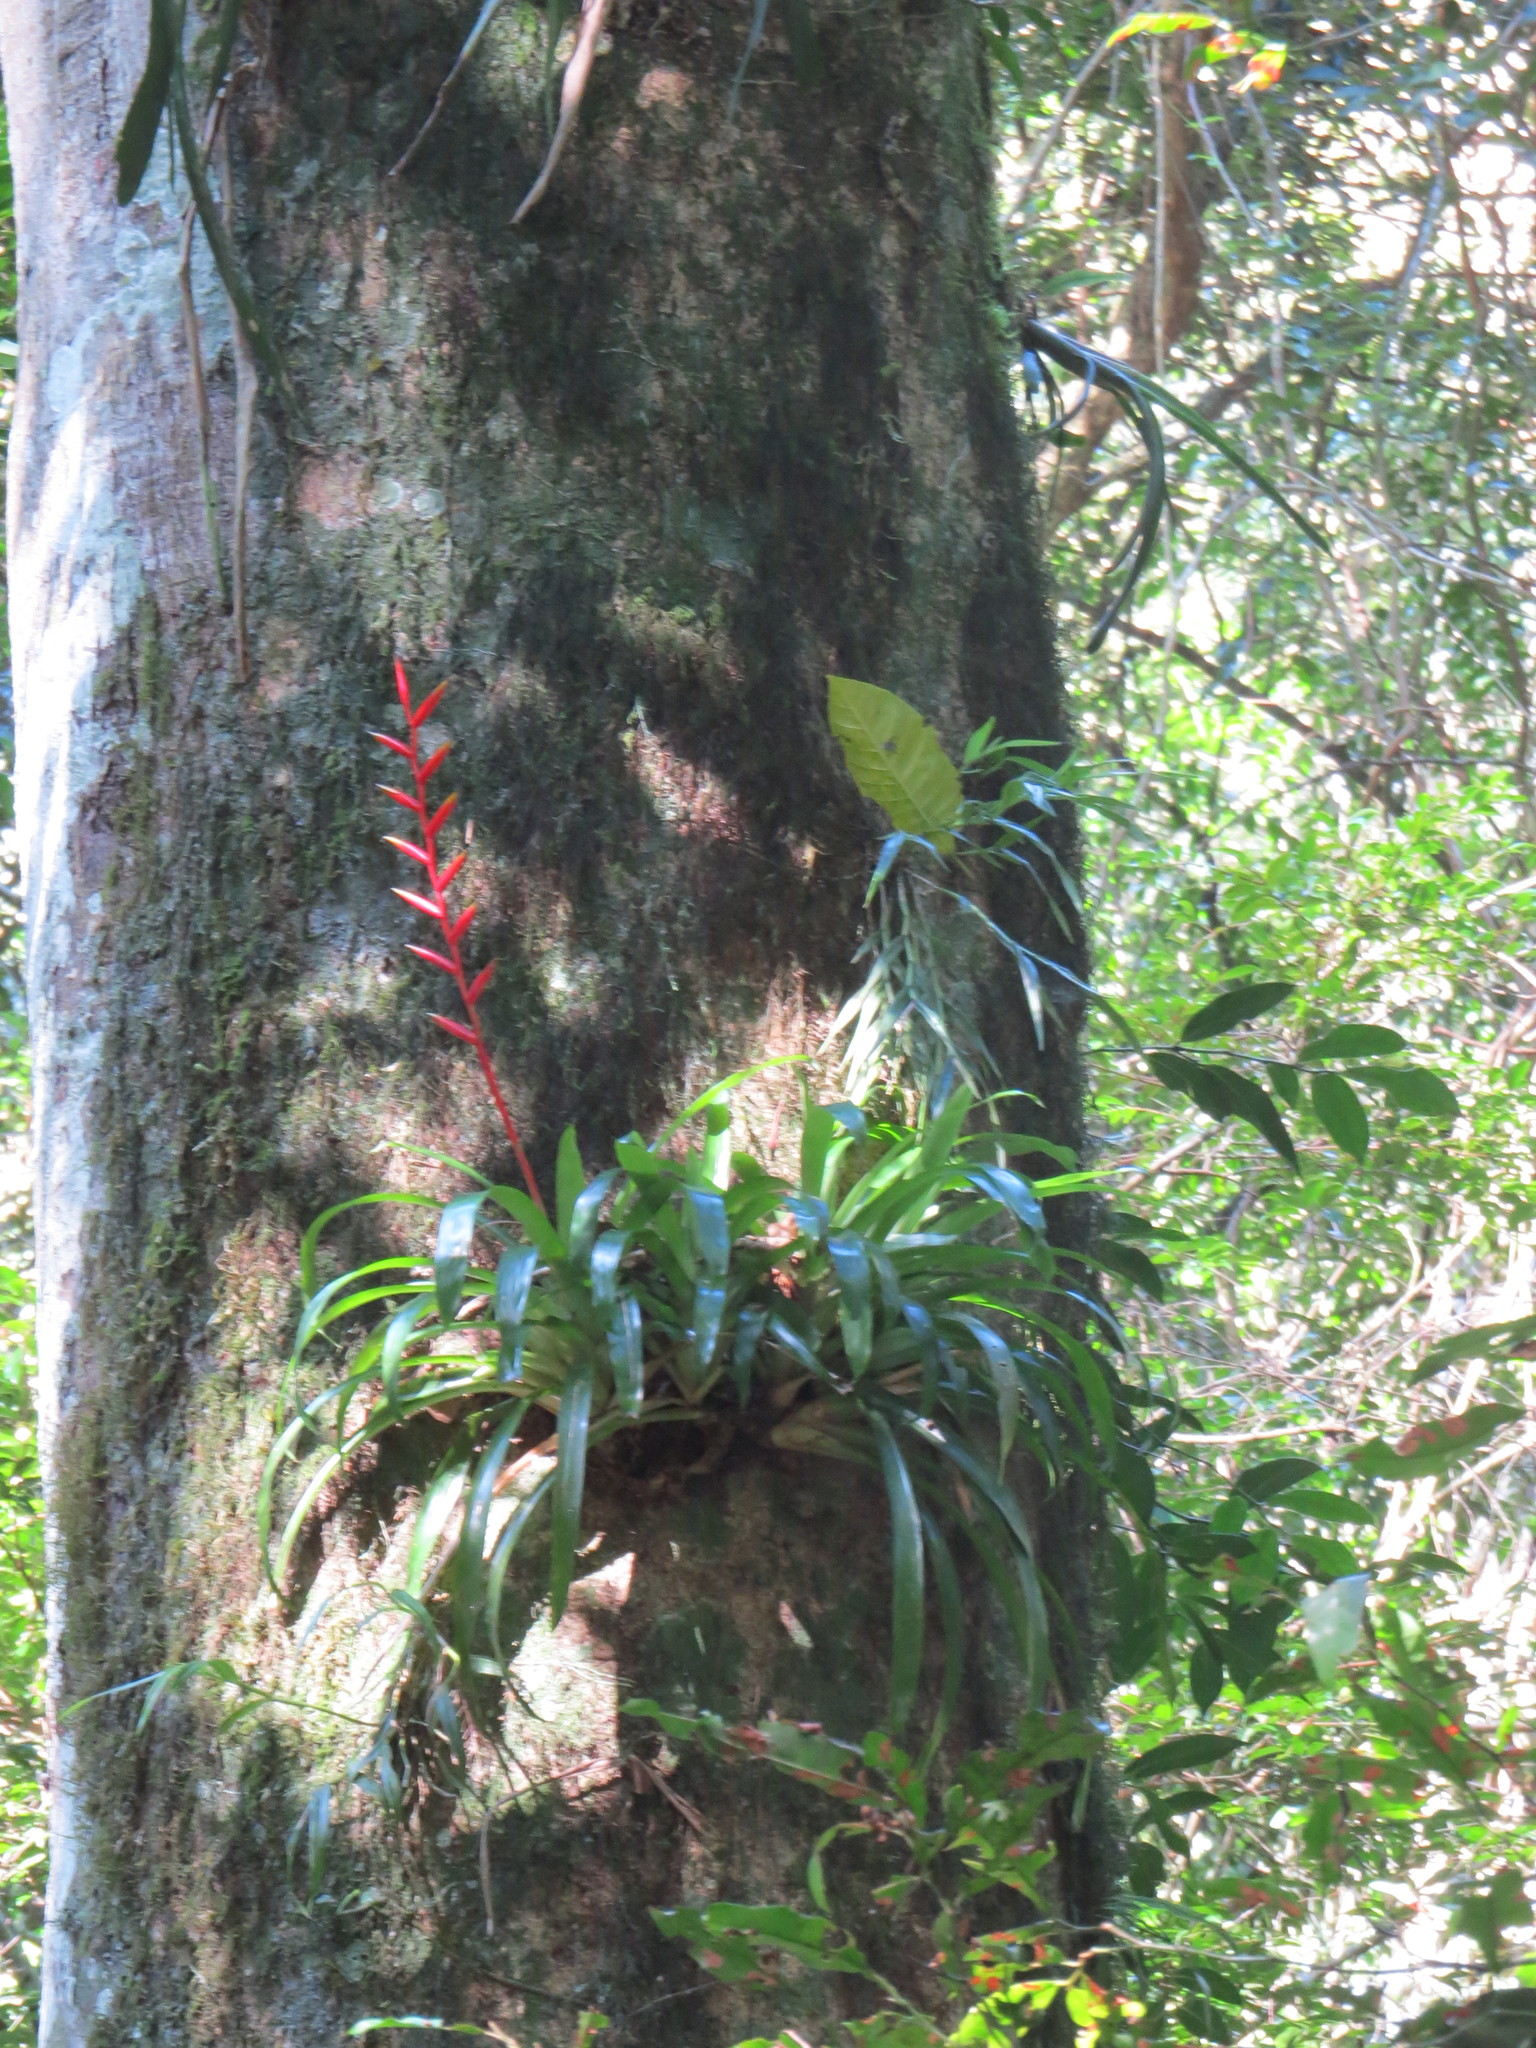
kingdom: Plantae
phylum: Tracheophyta
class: Liliopsida
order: Poales
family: Bromeliaceae
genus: Vriesea
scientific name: Vriesea psittacina
